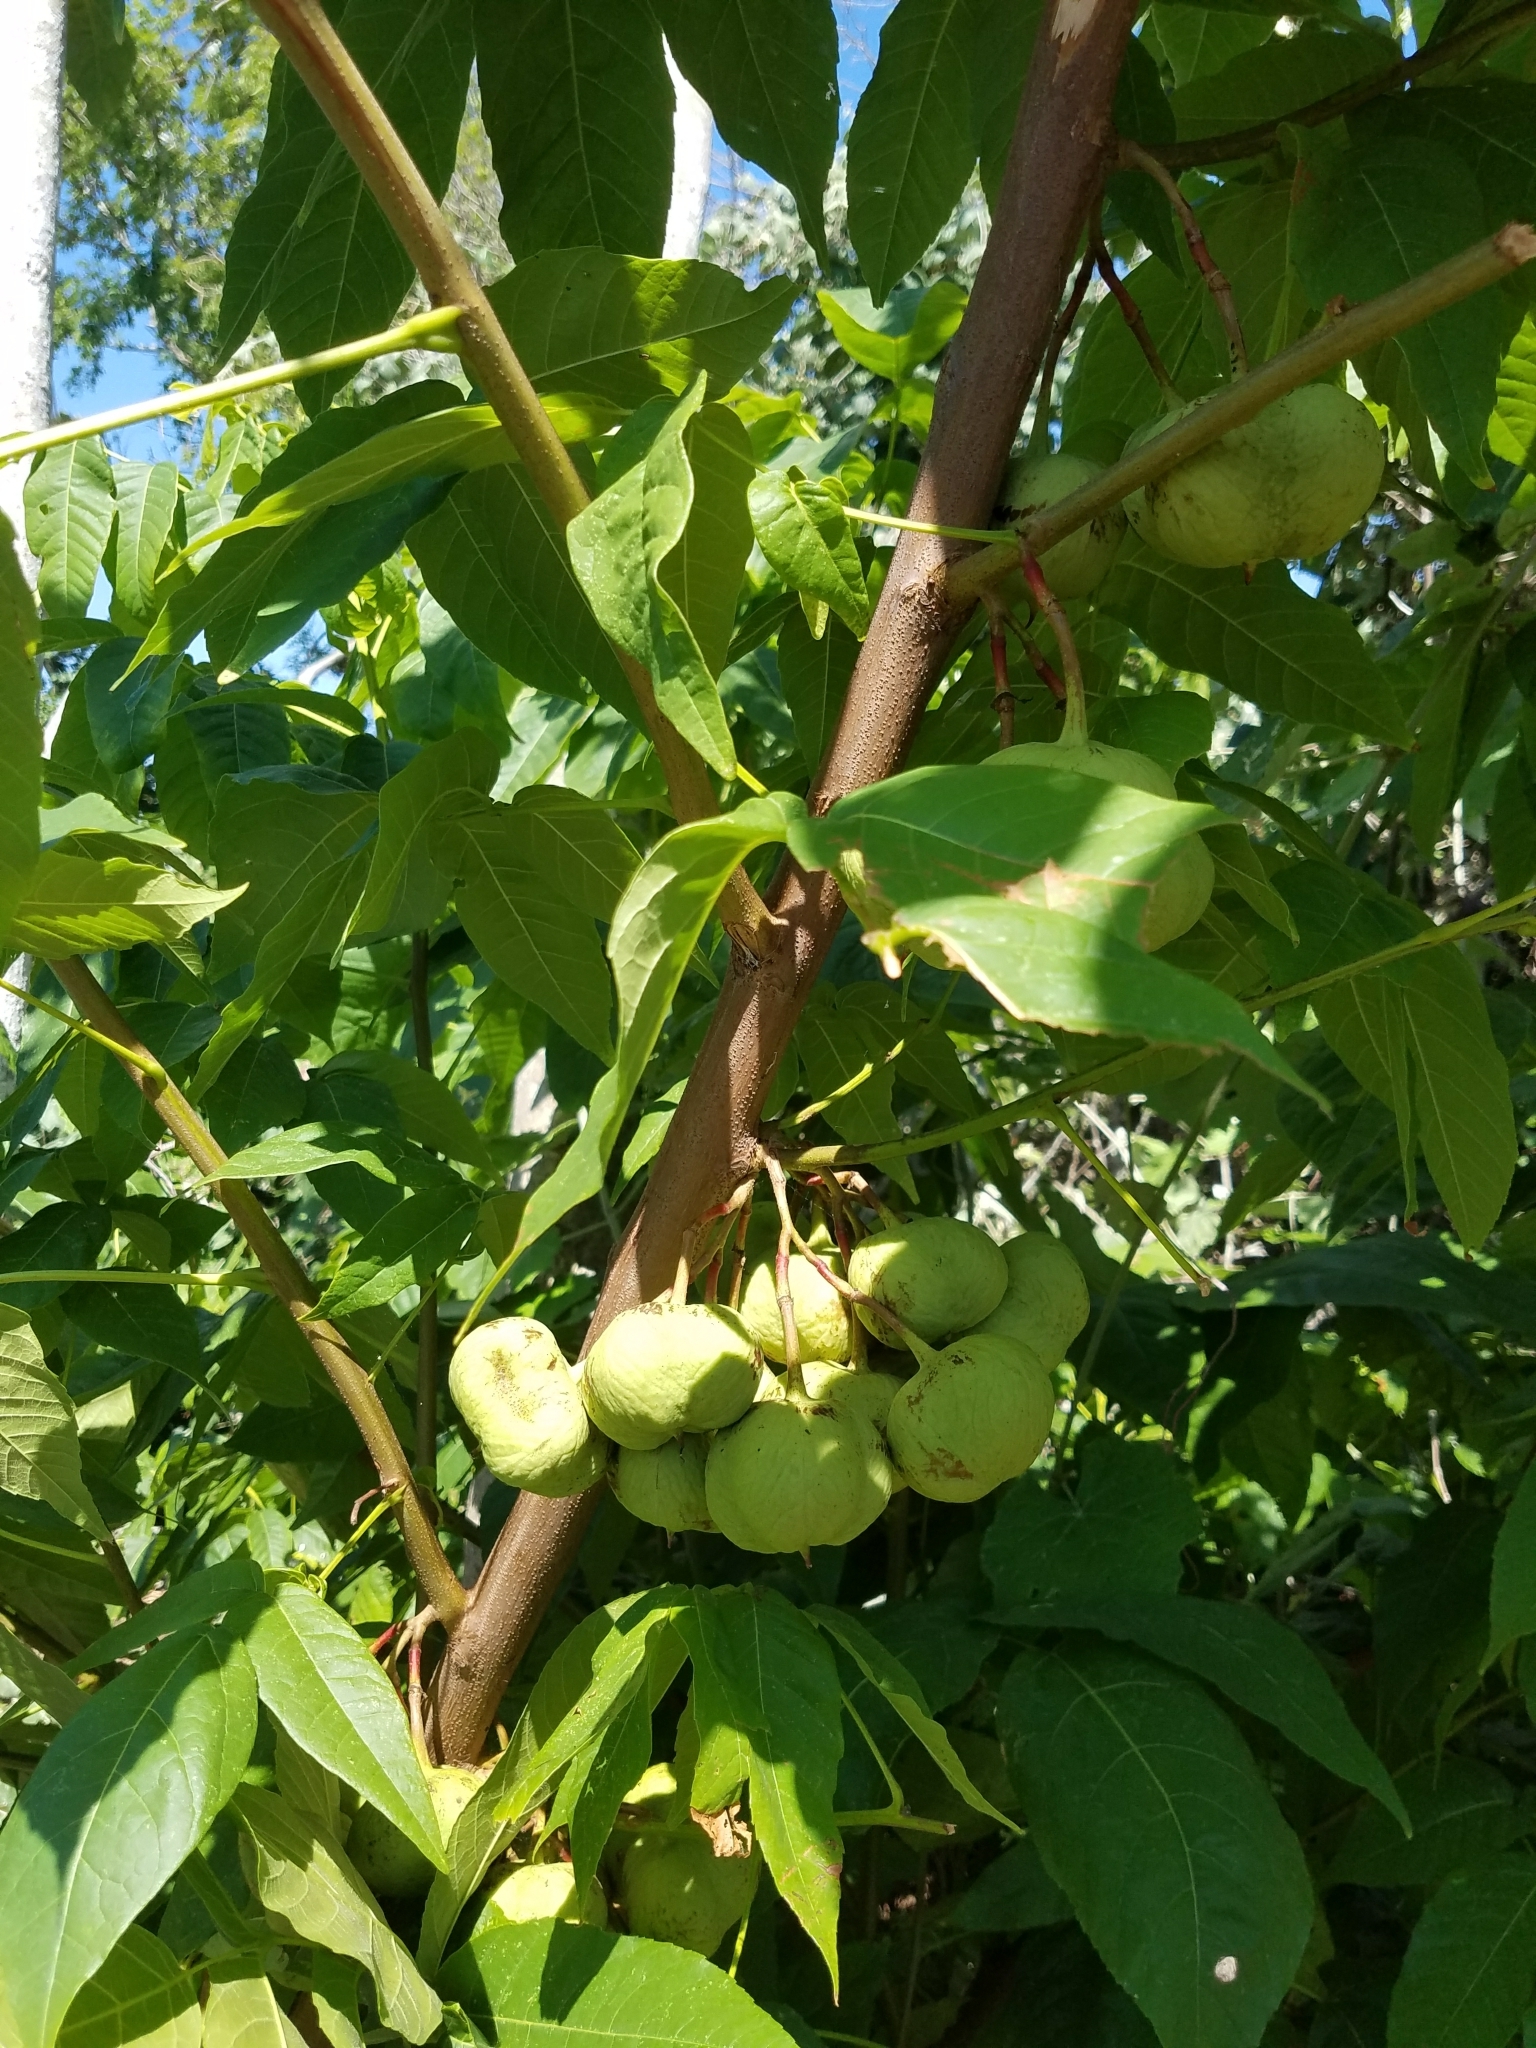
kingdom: Plantae
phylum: Tracheophyta
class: Magnoliopsida
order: Sapindales
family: Sapindaceae
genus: Ungnadia
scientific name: Ungnadia speciosa
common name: Texas-buckeye
